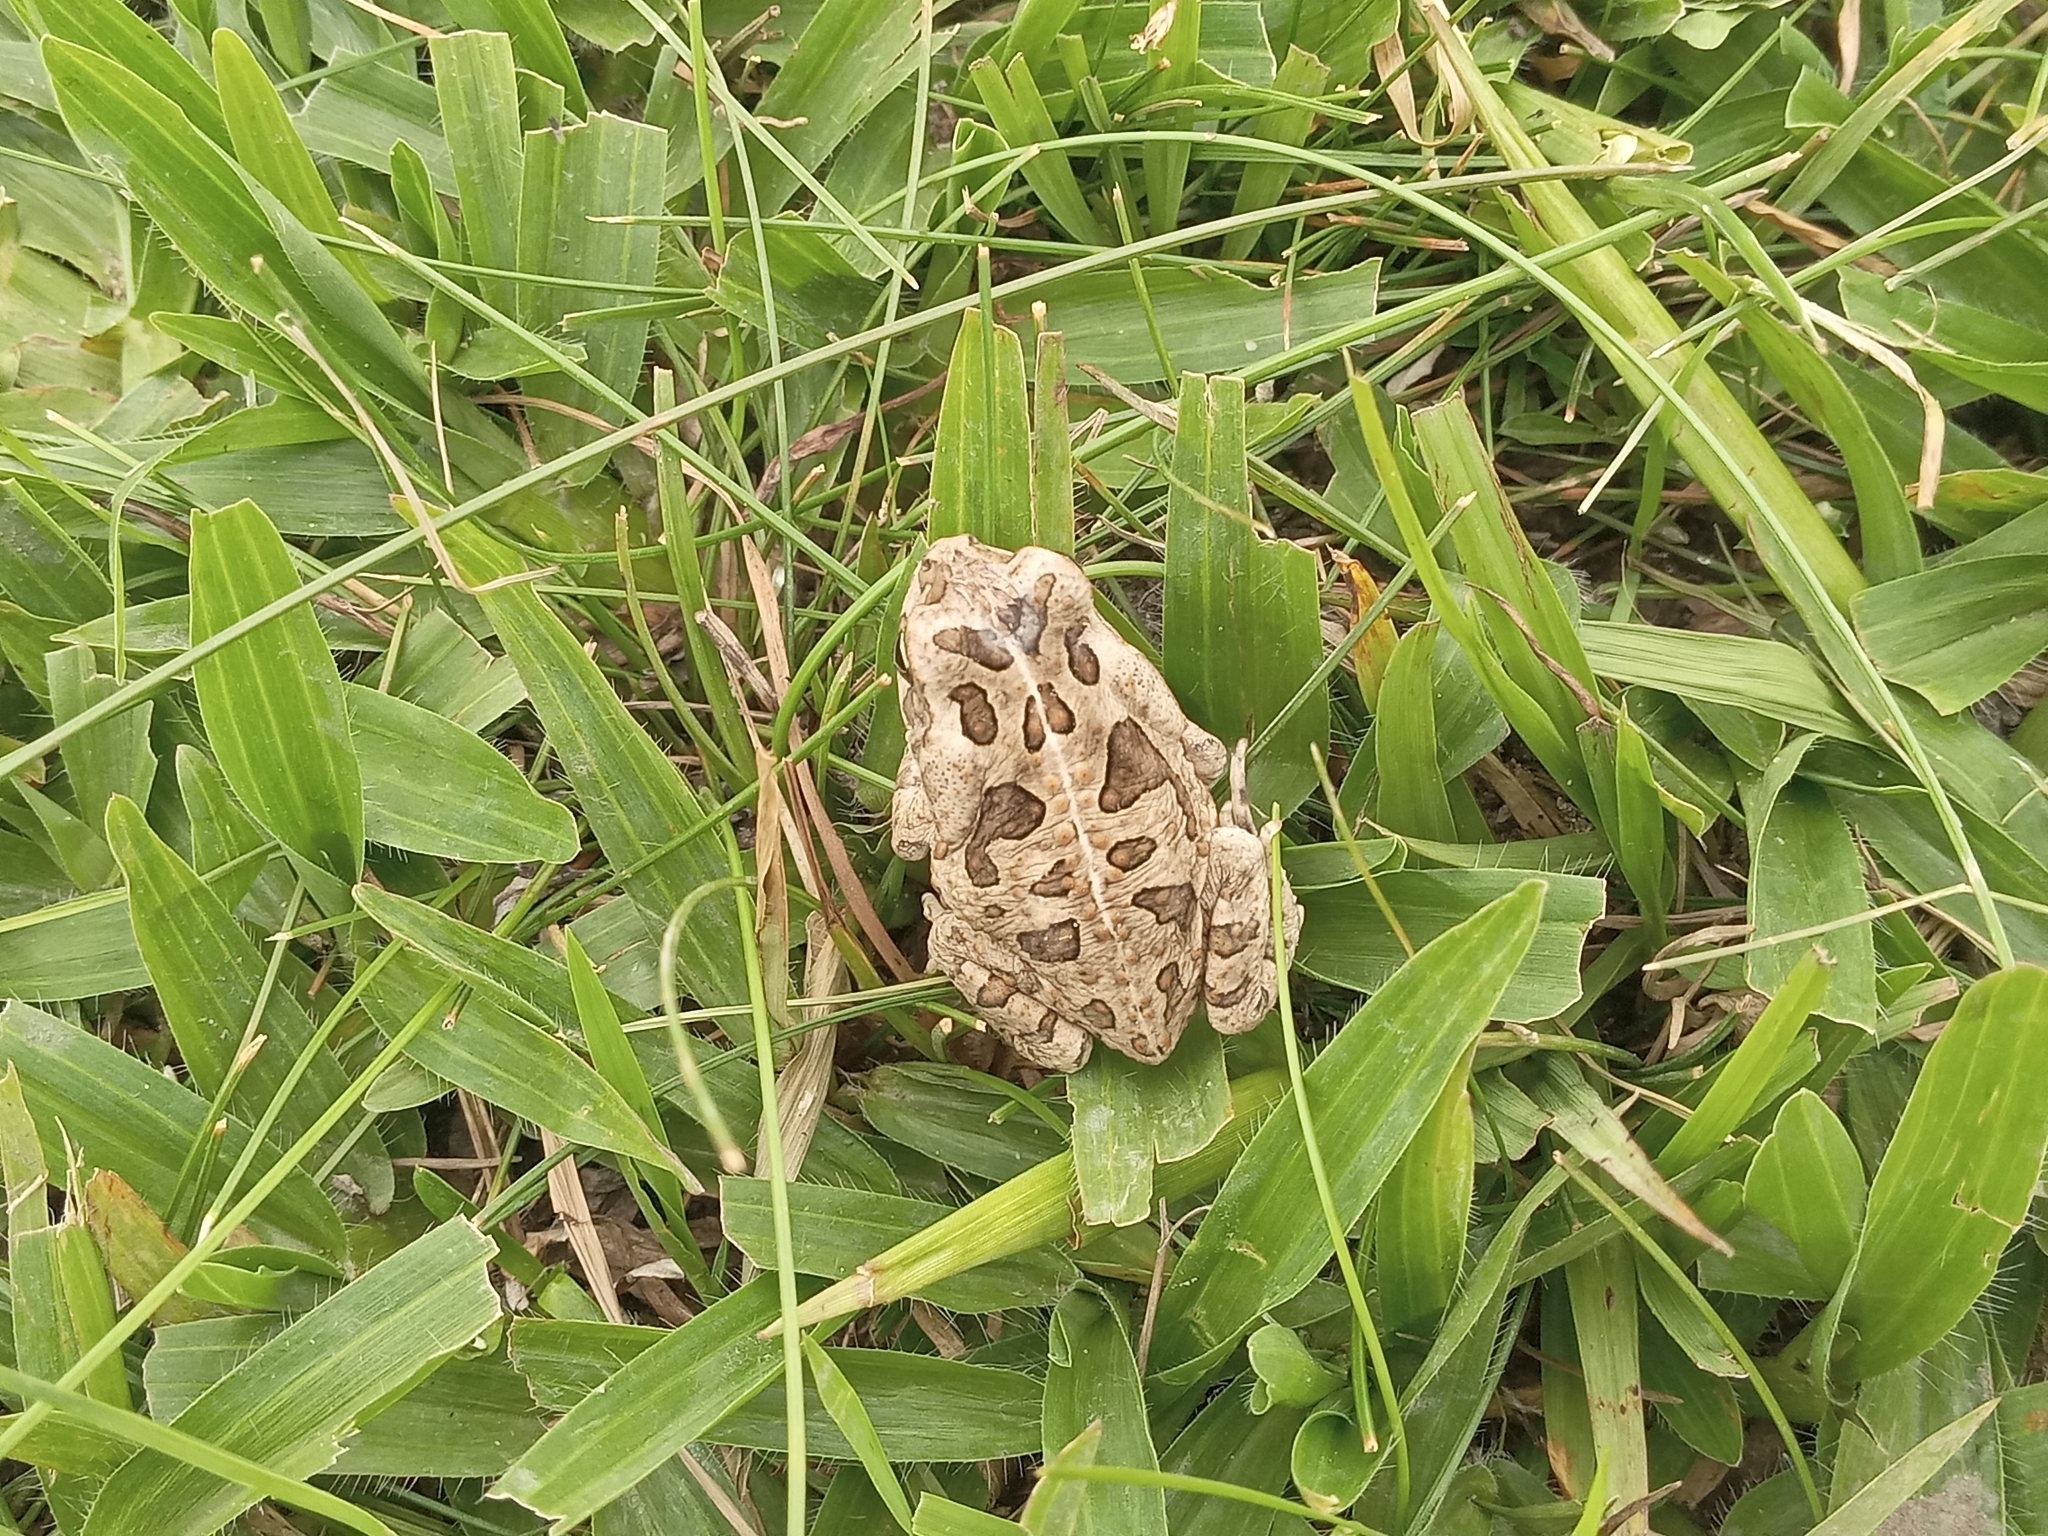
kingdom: Animalia
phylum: Chordata
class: Amphibia
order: Anura
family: Bufonidae
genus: Rhinella
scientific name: Rhinella diptycha
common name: Cope's toad
